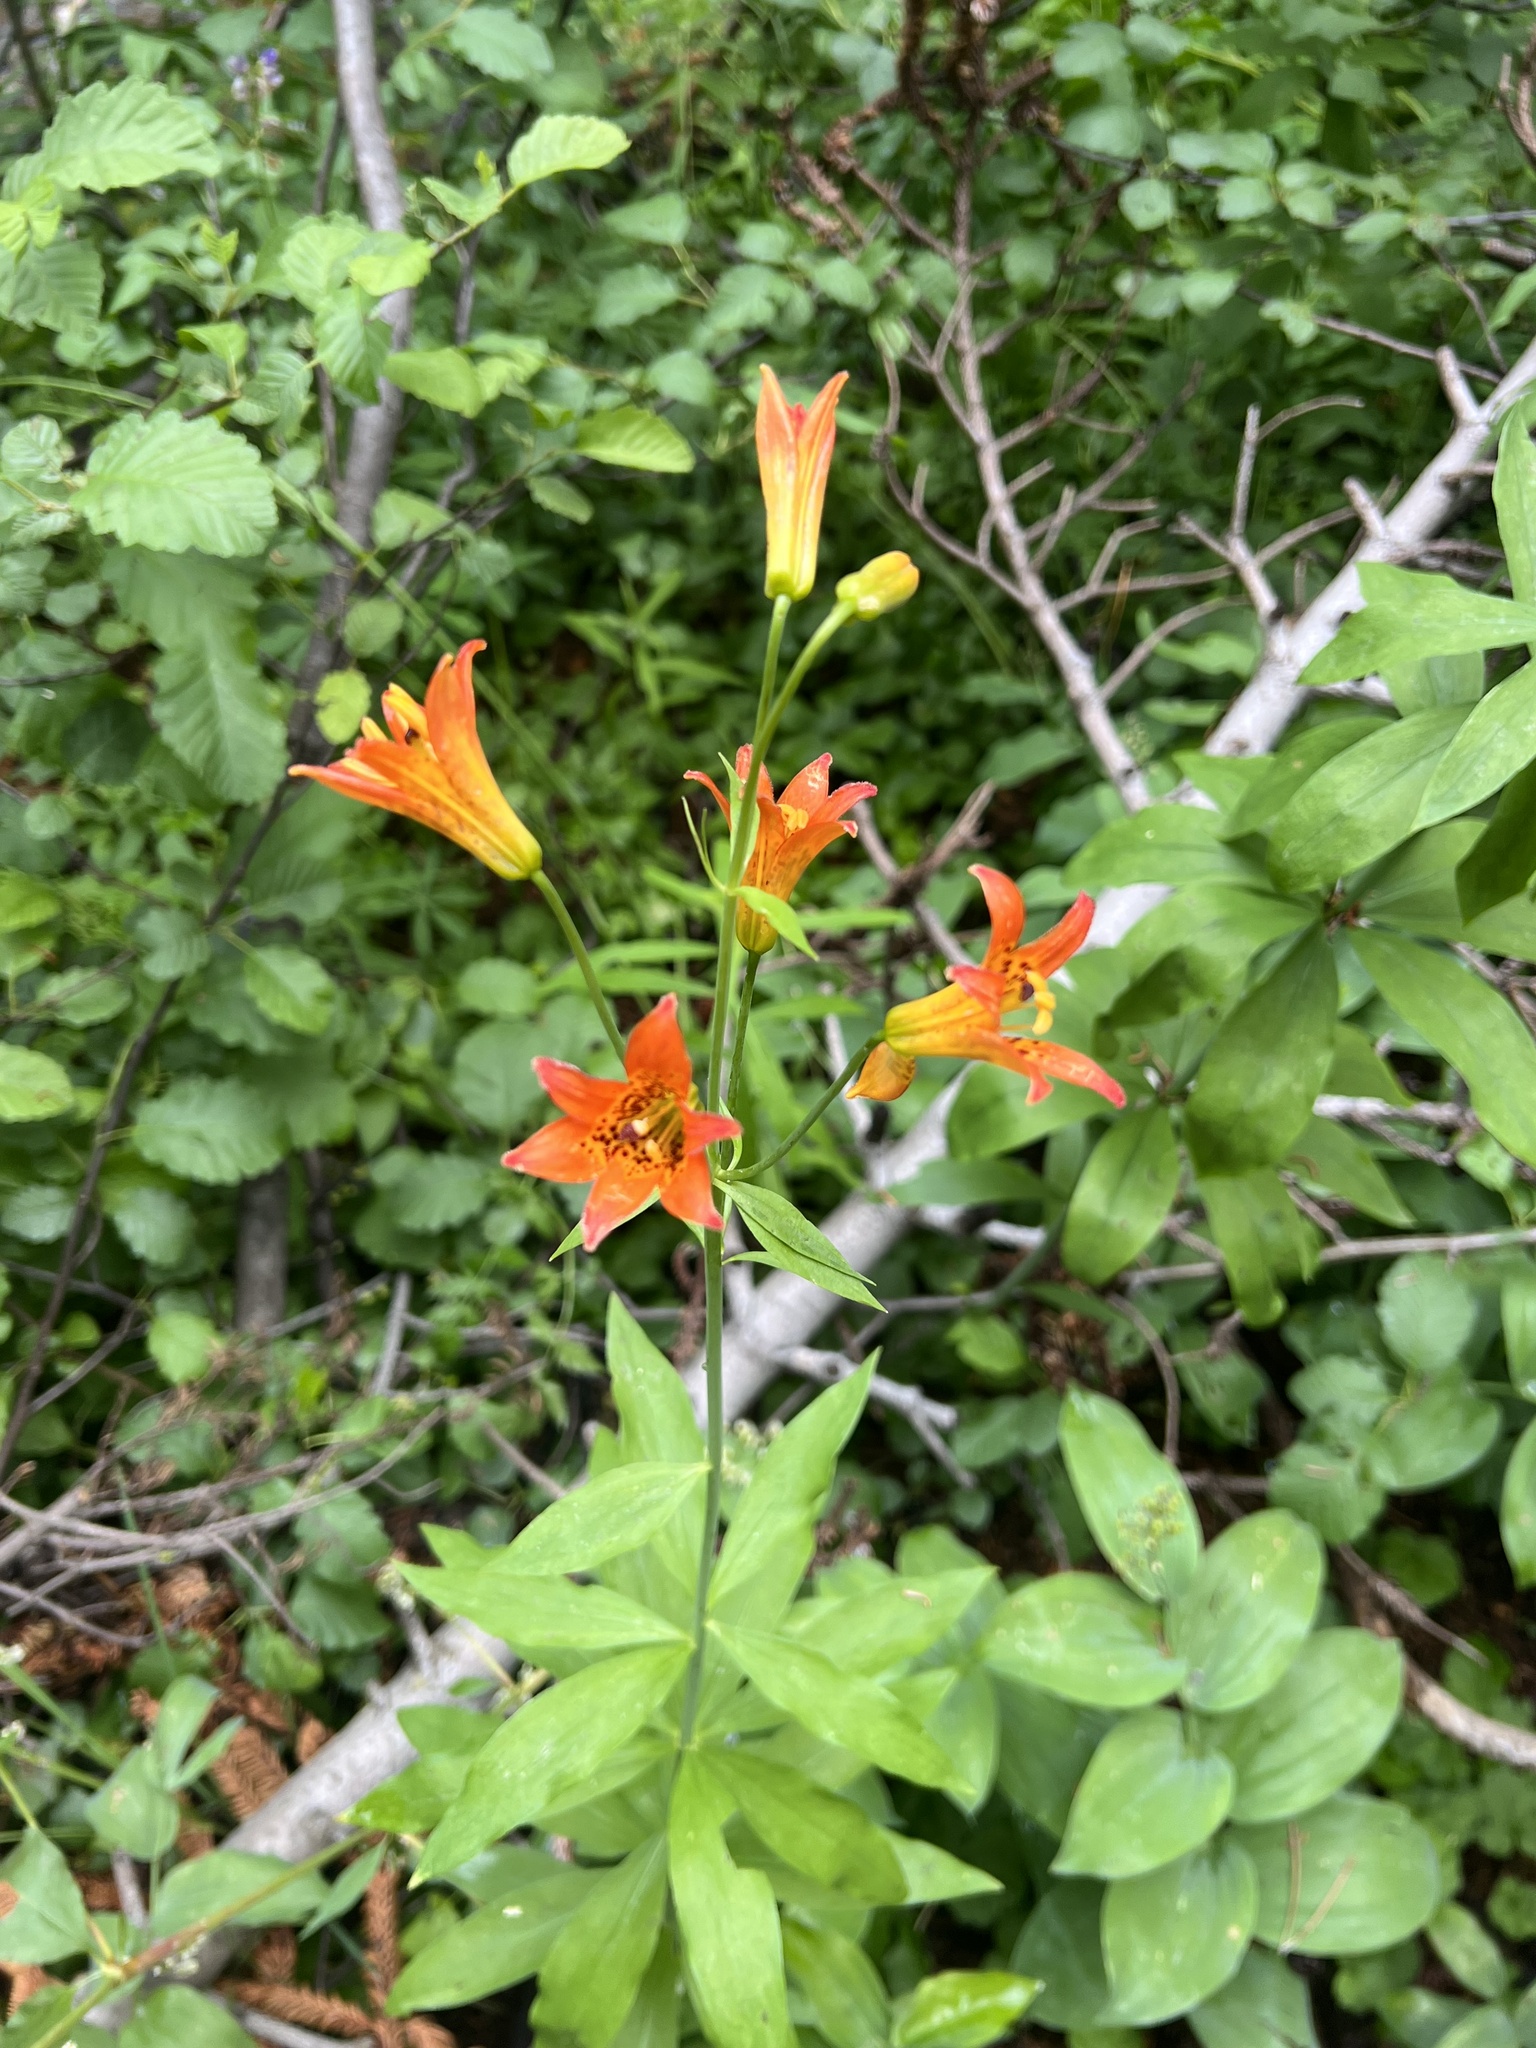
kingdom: Plantae
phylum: Tracheophyta
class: Liliopsida
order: Liliales
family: Liliaceae
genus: Lilium
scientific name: Lilium parvum
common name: Alpine lily
